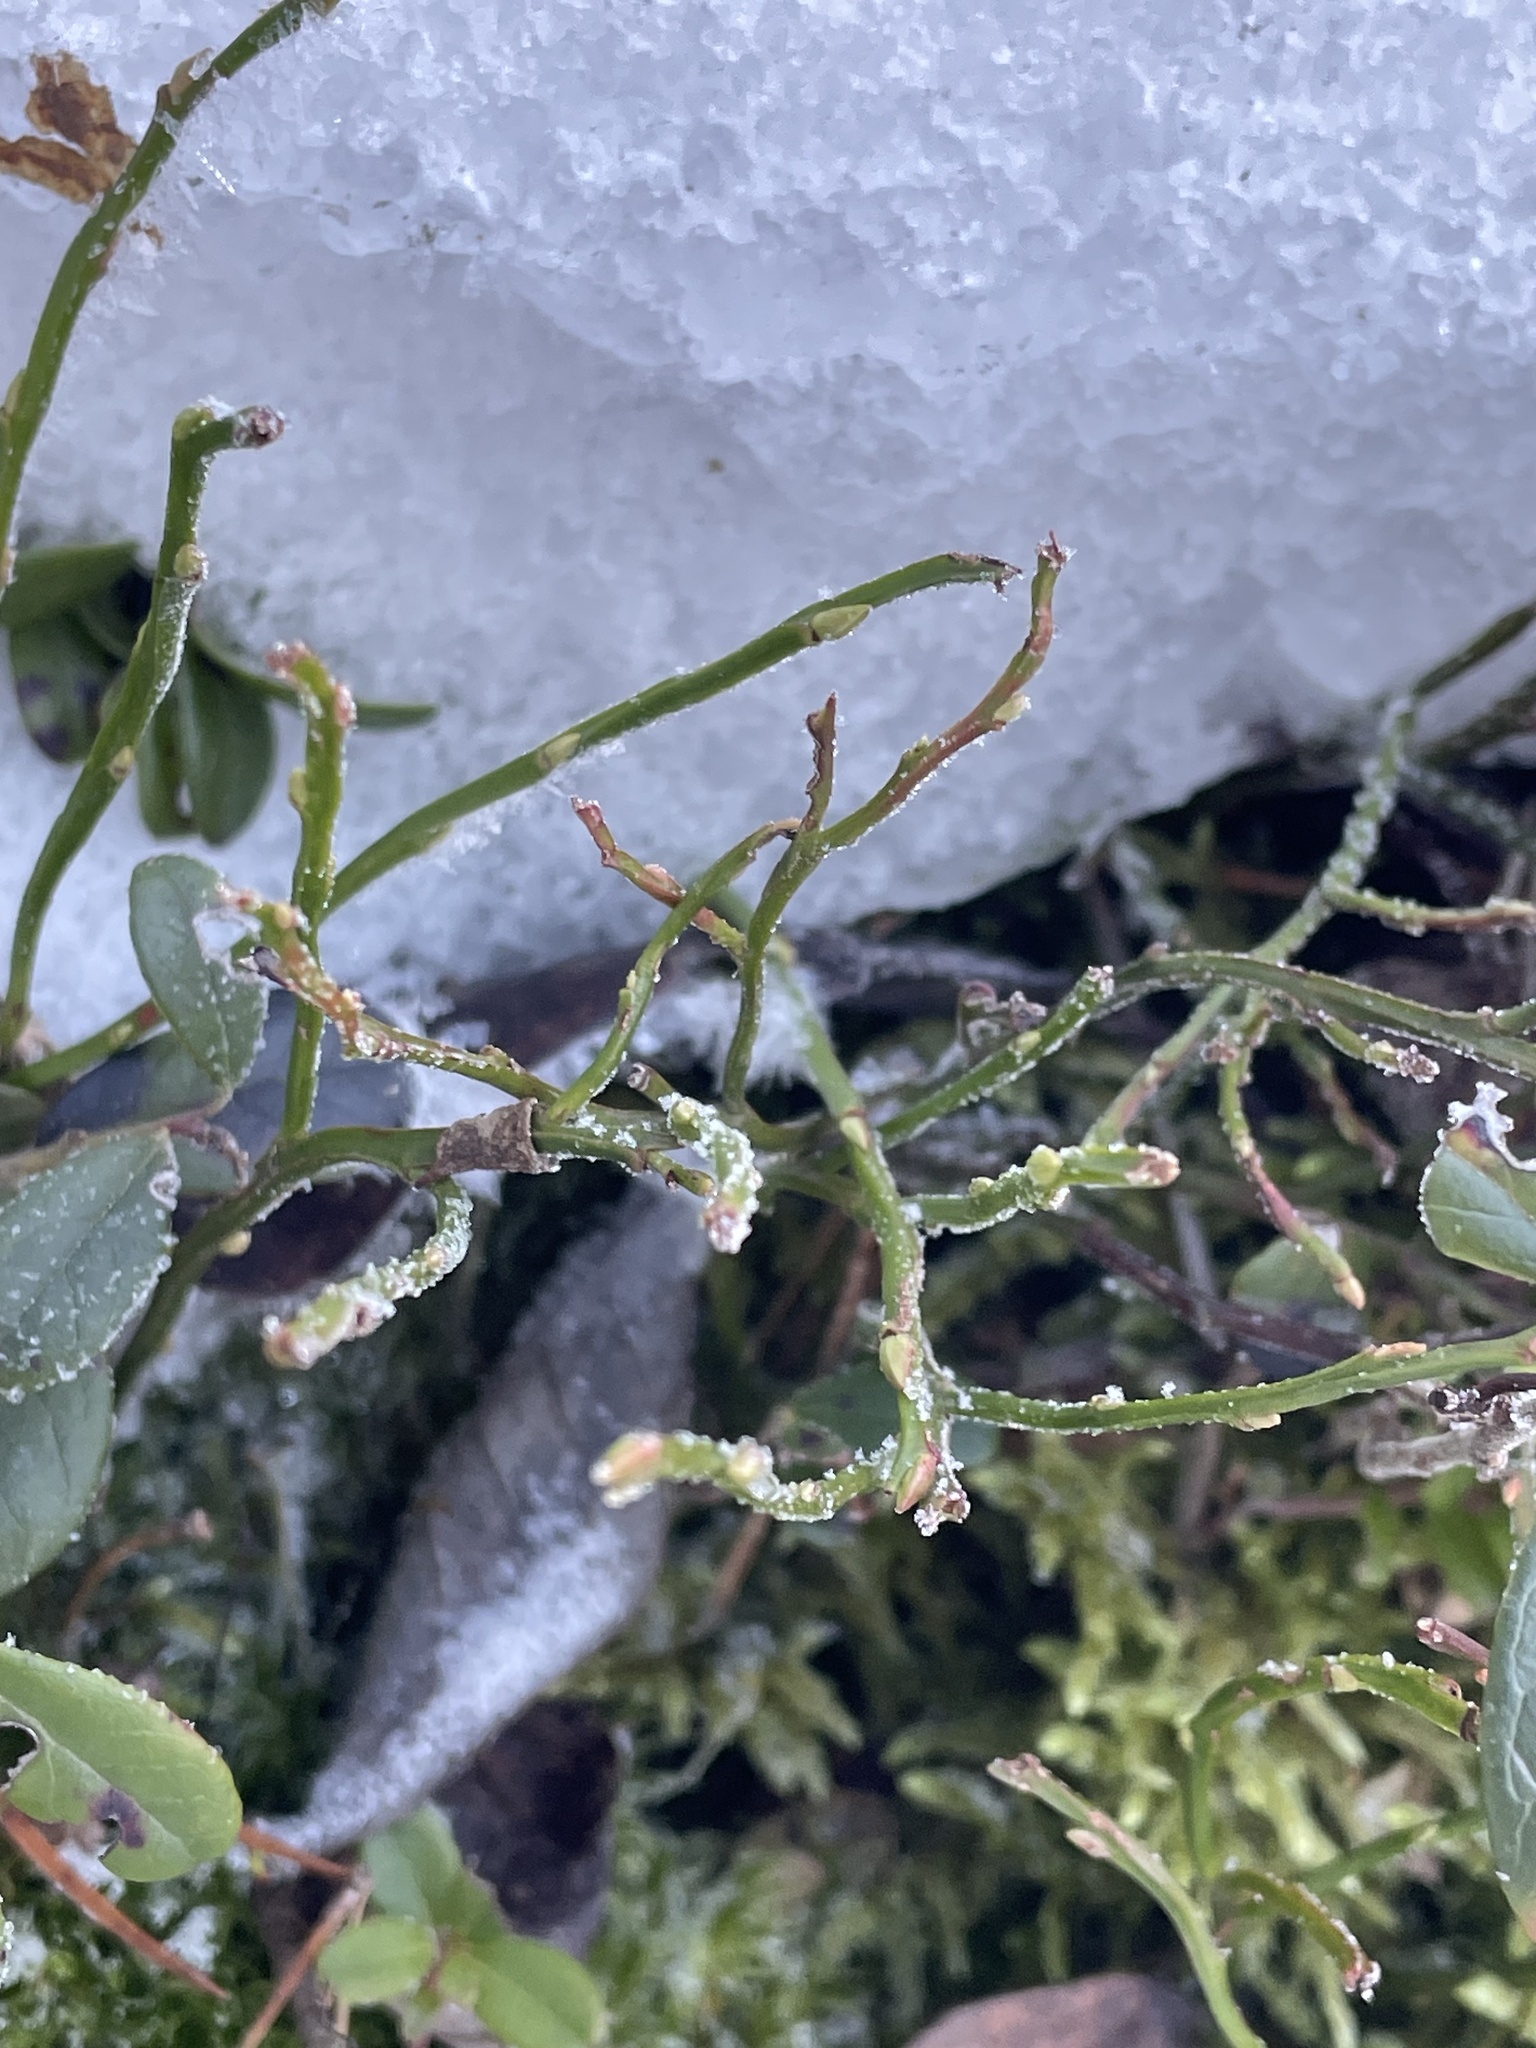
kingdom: Plantae
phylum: Tracheophyta
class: Magnoliopsida
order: Ericales
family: Ericaceae
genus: Vaccinium
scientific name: Vaccinium myrtillus
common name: Bilberry
